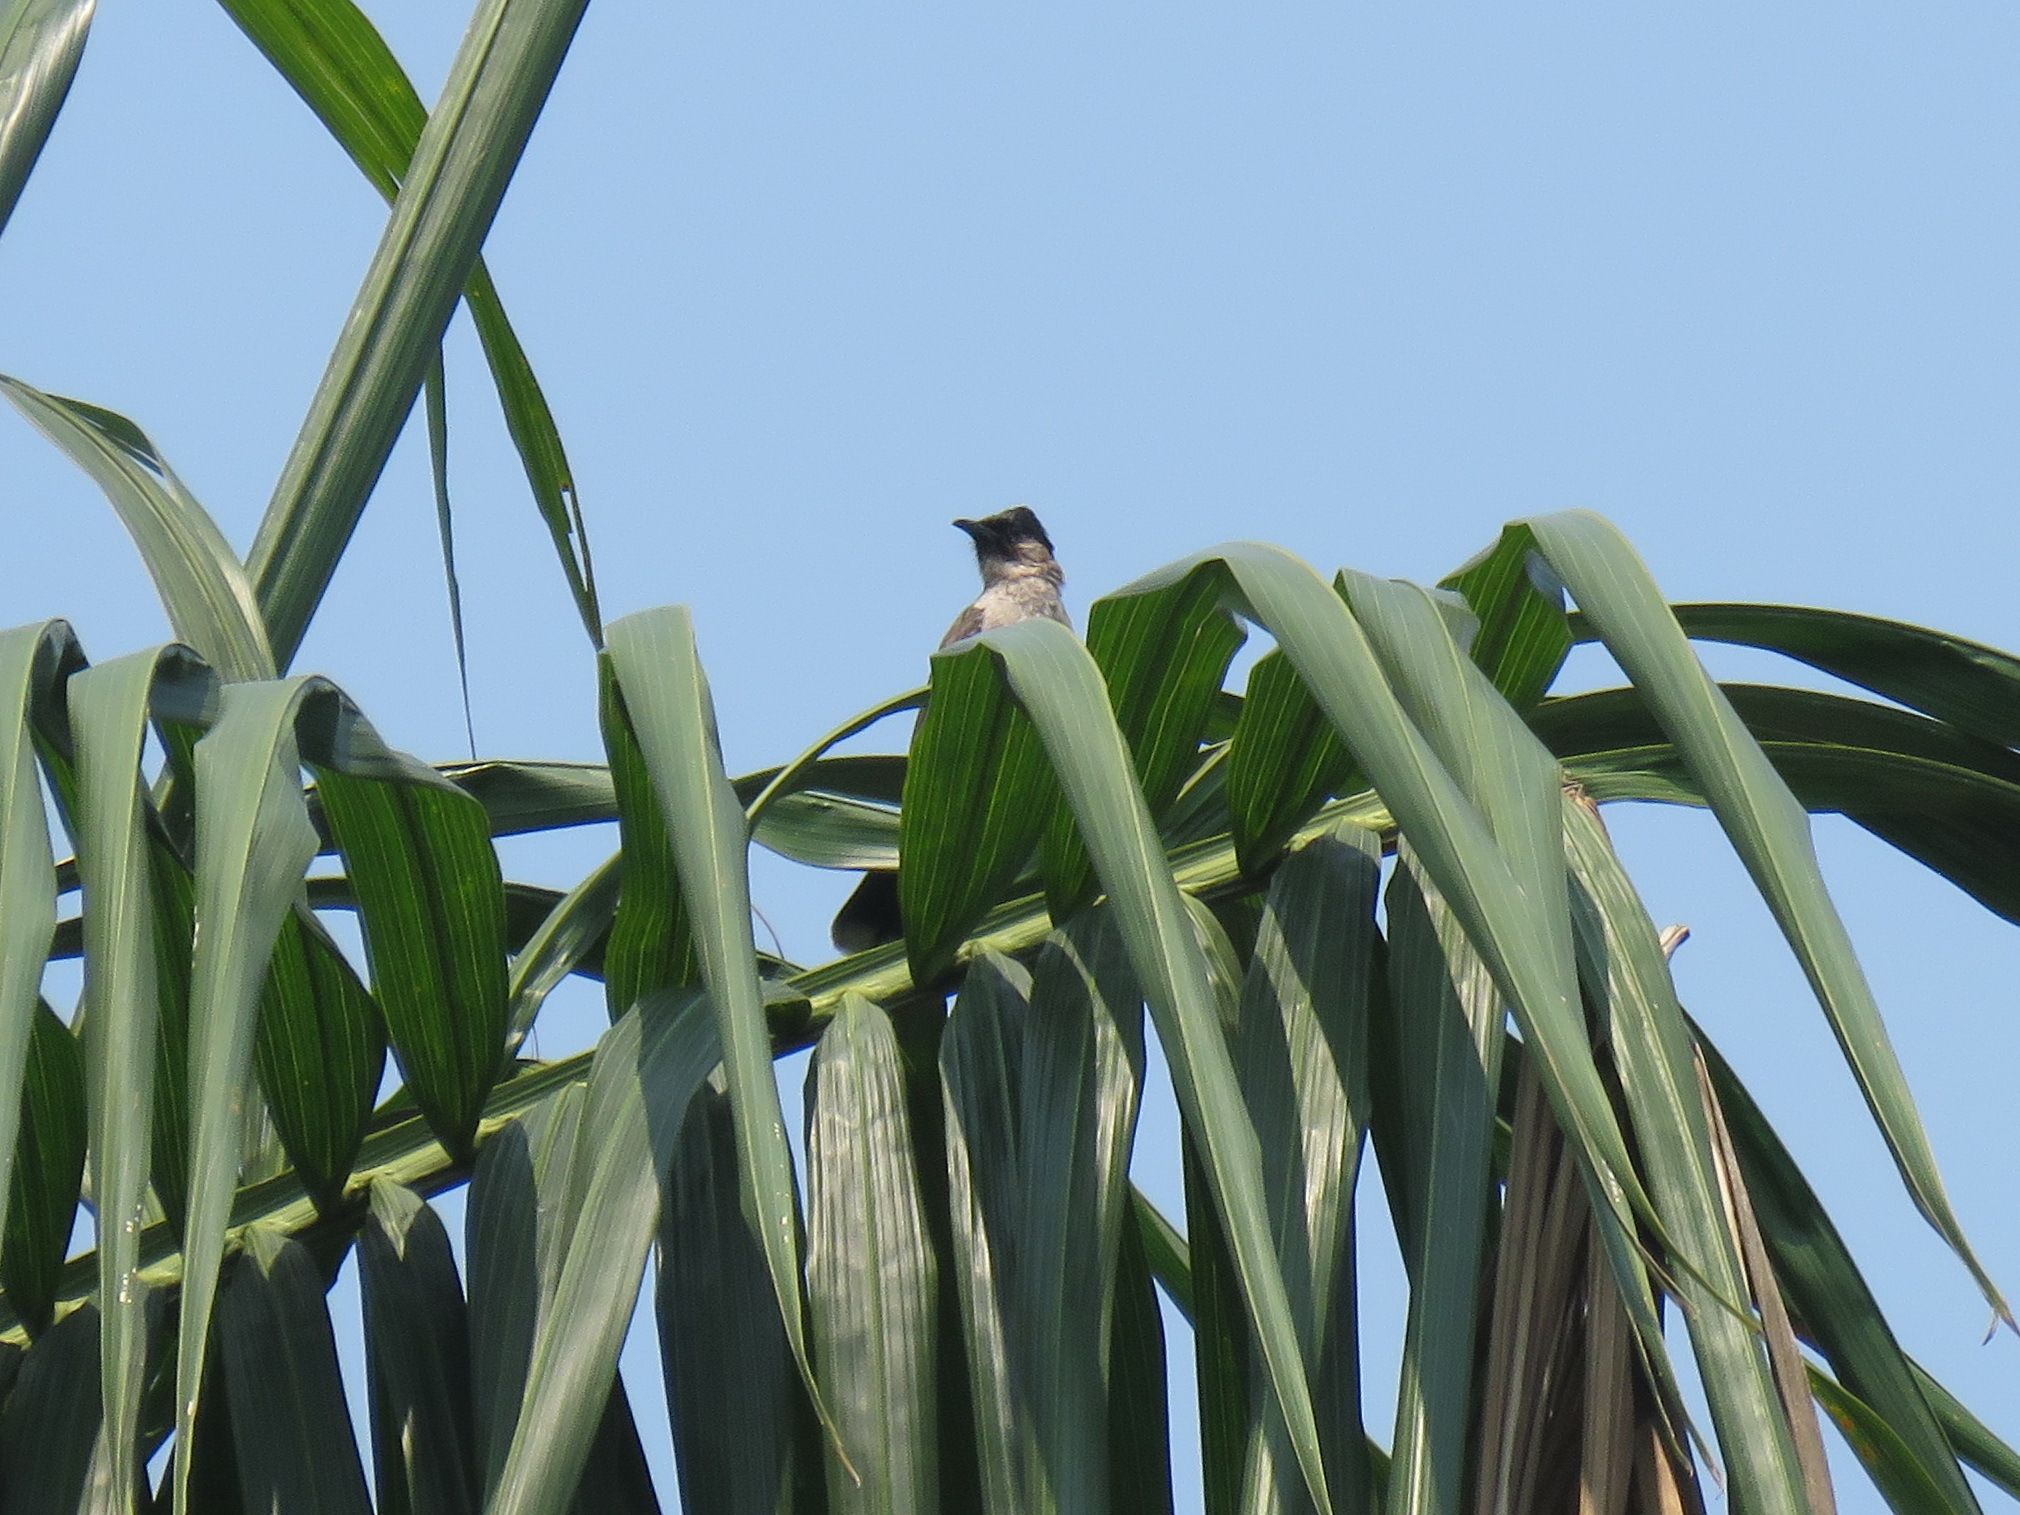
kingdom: Animalia
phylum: Chordata
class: Aves
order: Passeriformes
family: Pycnonotidae
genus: Pycnonotus
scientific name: Pycnonotus aurigaster
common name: Sooty-headed bulbul
